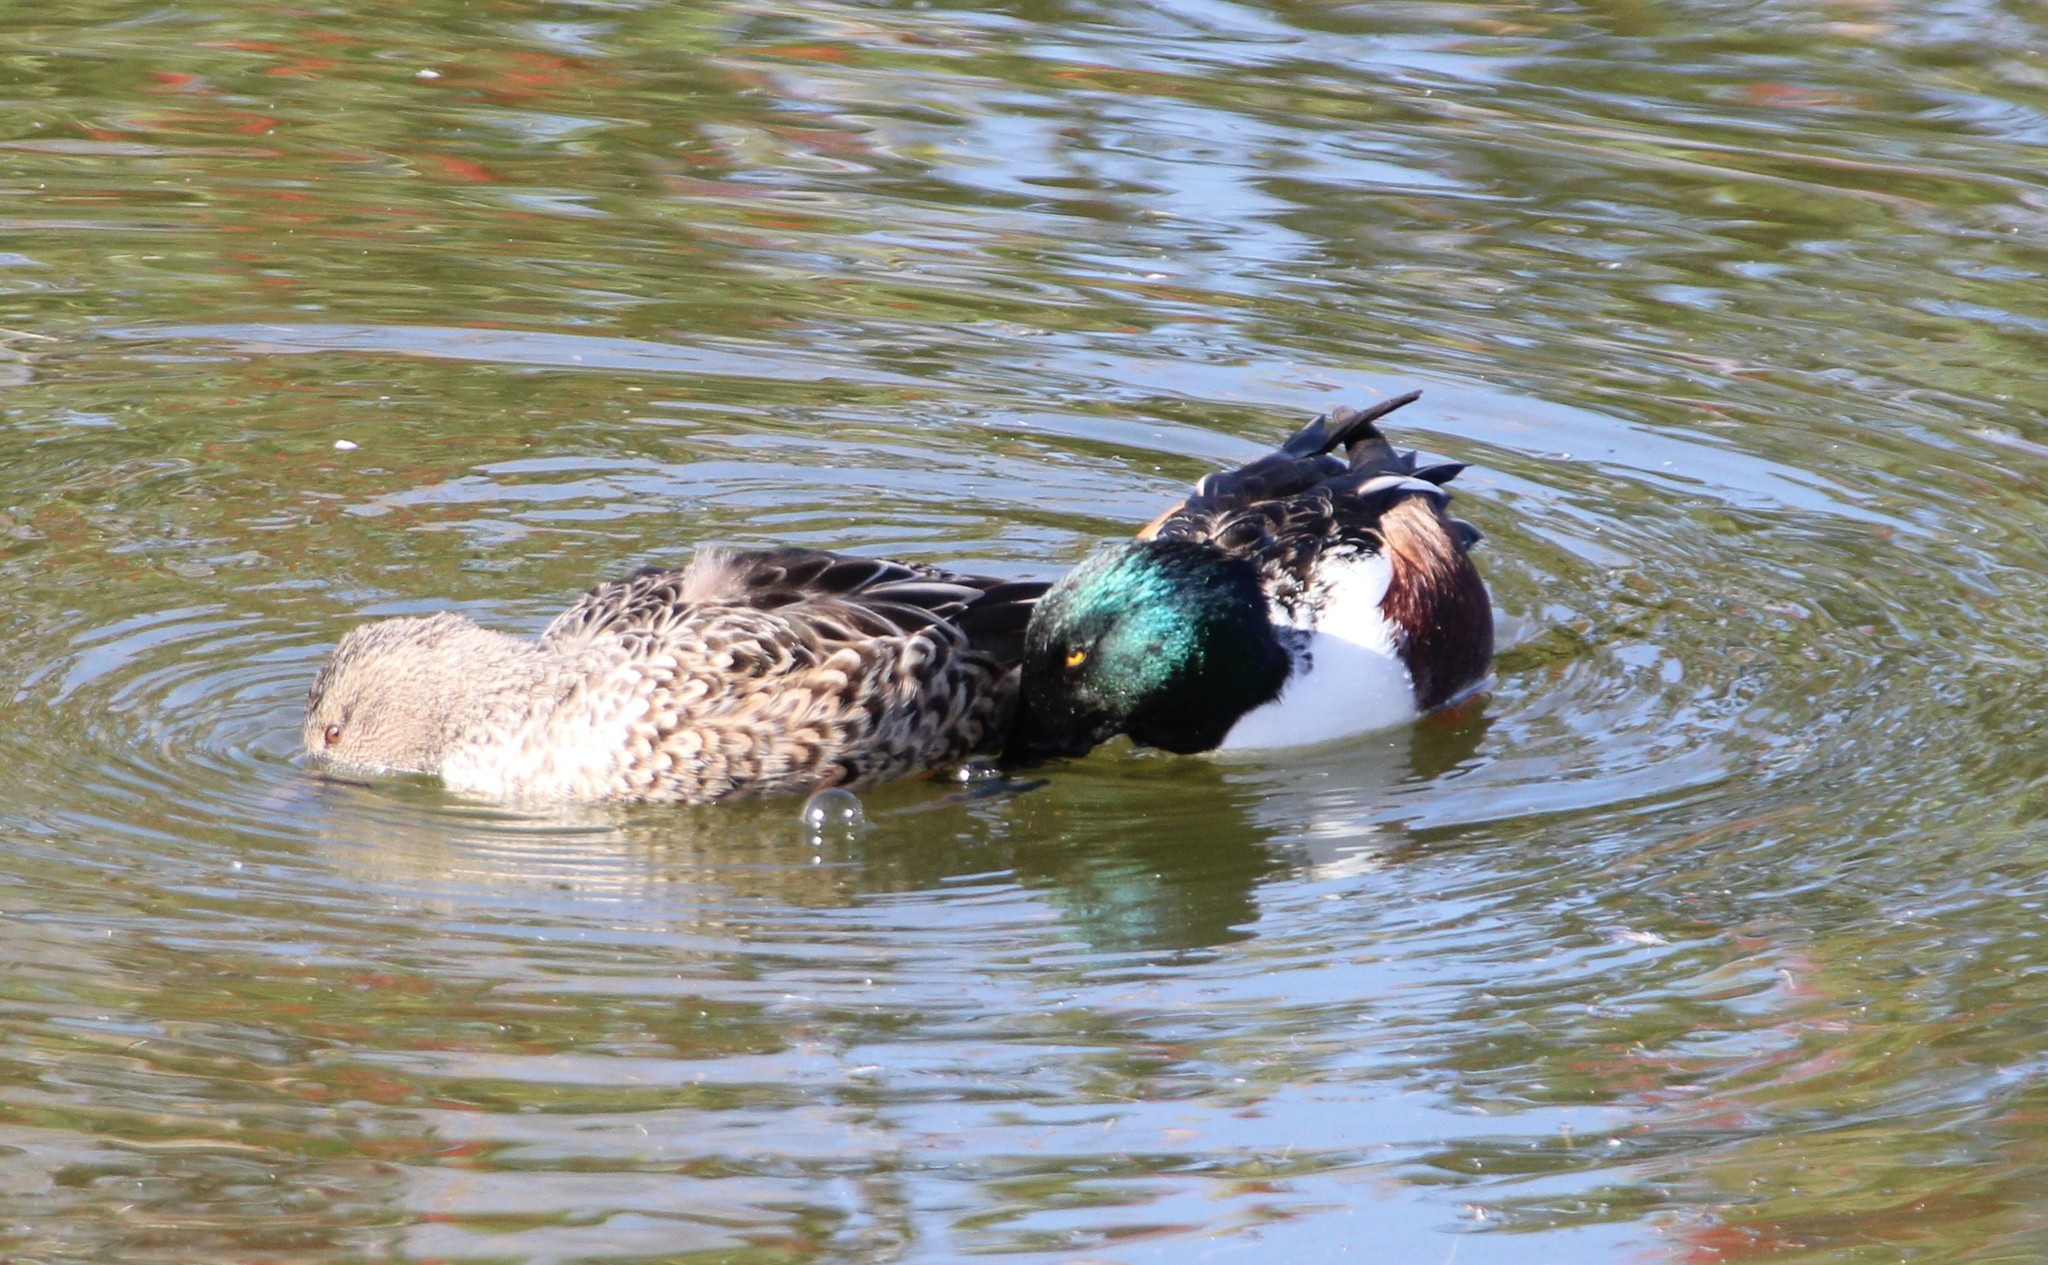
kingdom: Animalia
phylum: Chordata
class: Aves
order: Anseriformes
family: Anatidae
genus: Spatula
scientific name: Spatula clypeata
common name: Northern shoveler
